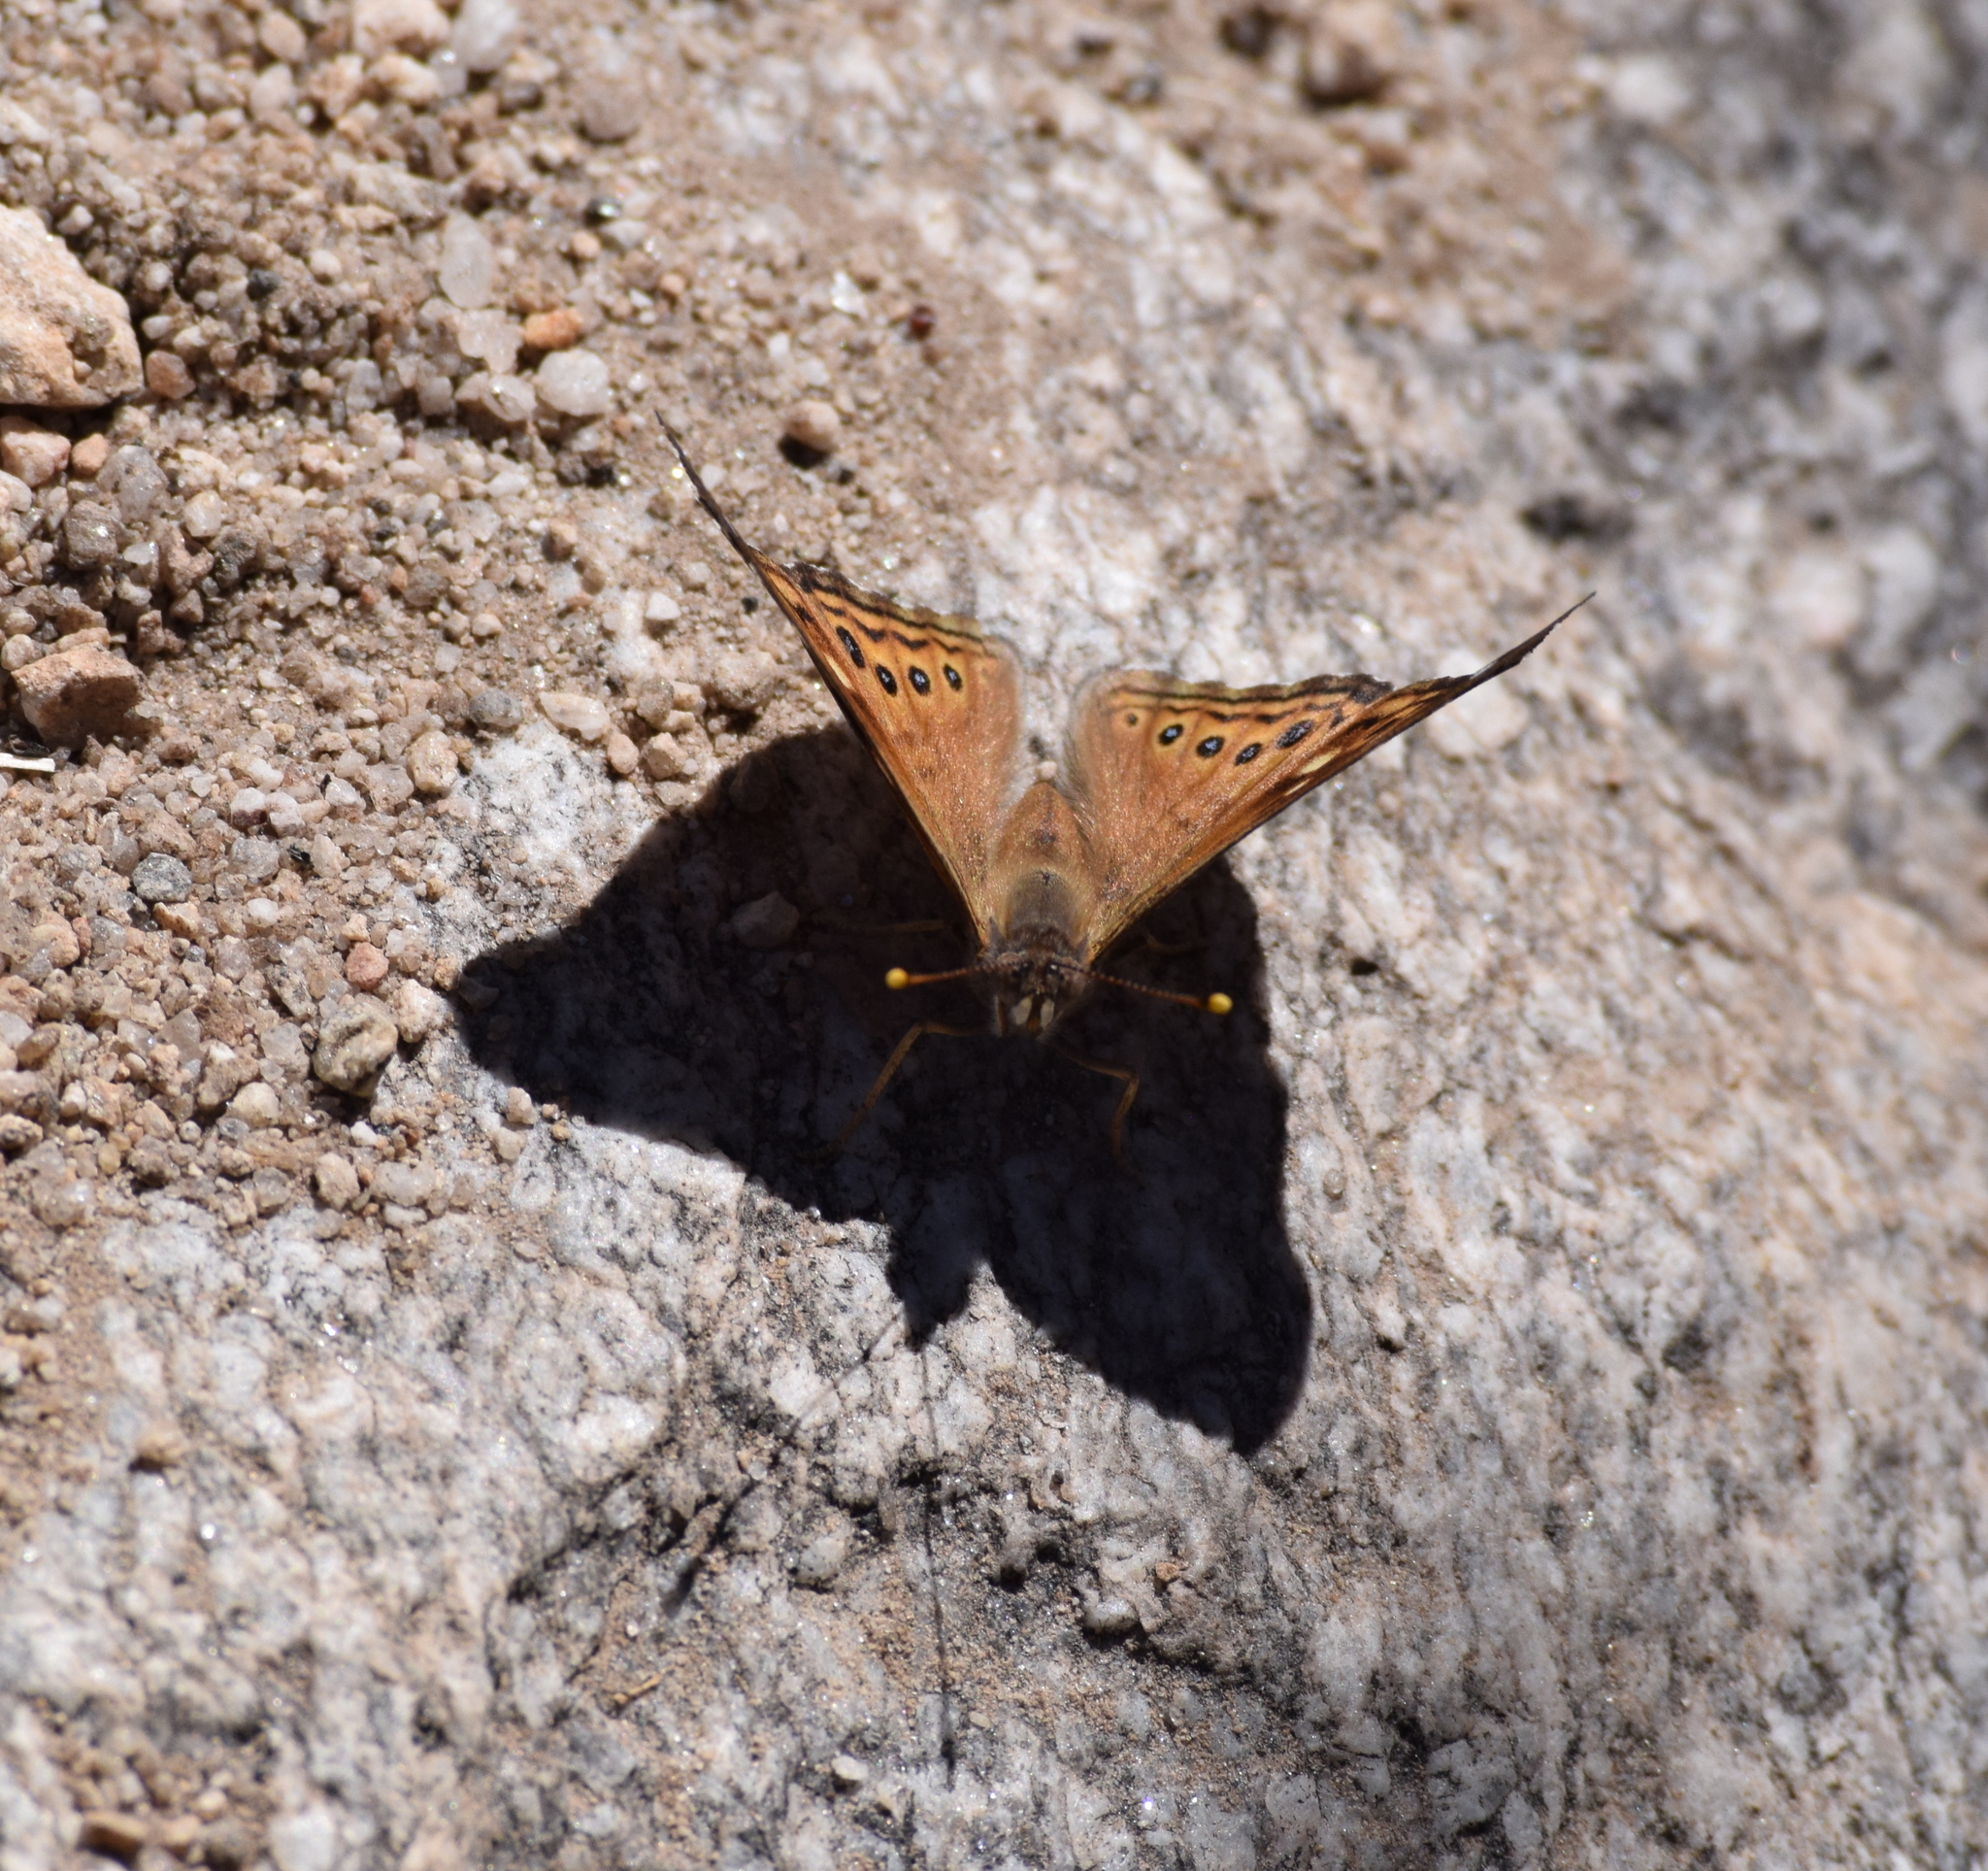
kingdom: Animalia
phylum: Arthropoda
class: Insecta
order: Lepidoptera
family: Nymphalidae
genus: Asterocampa
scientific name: Asterocampa leilia
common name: Empress leilia
